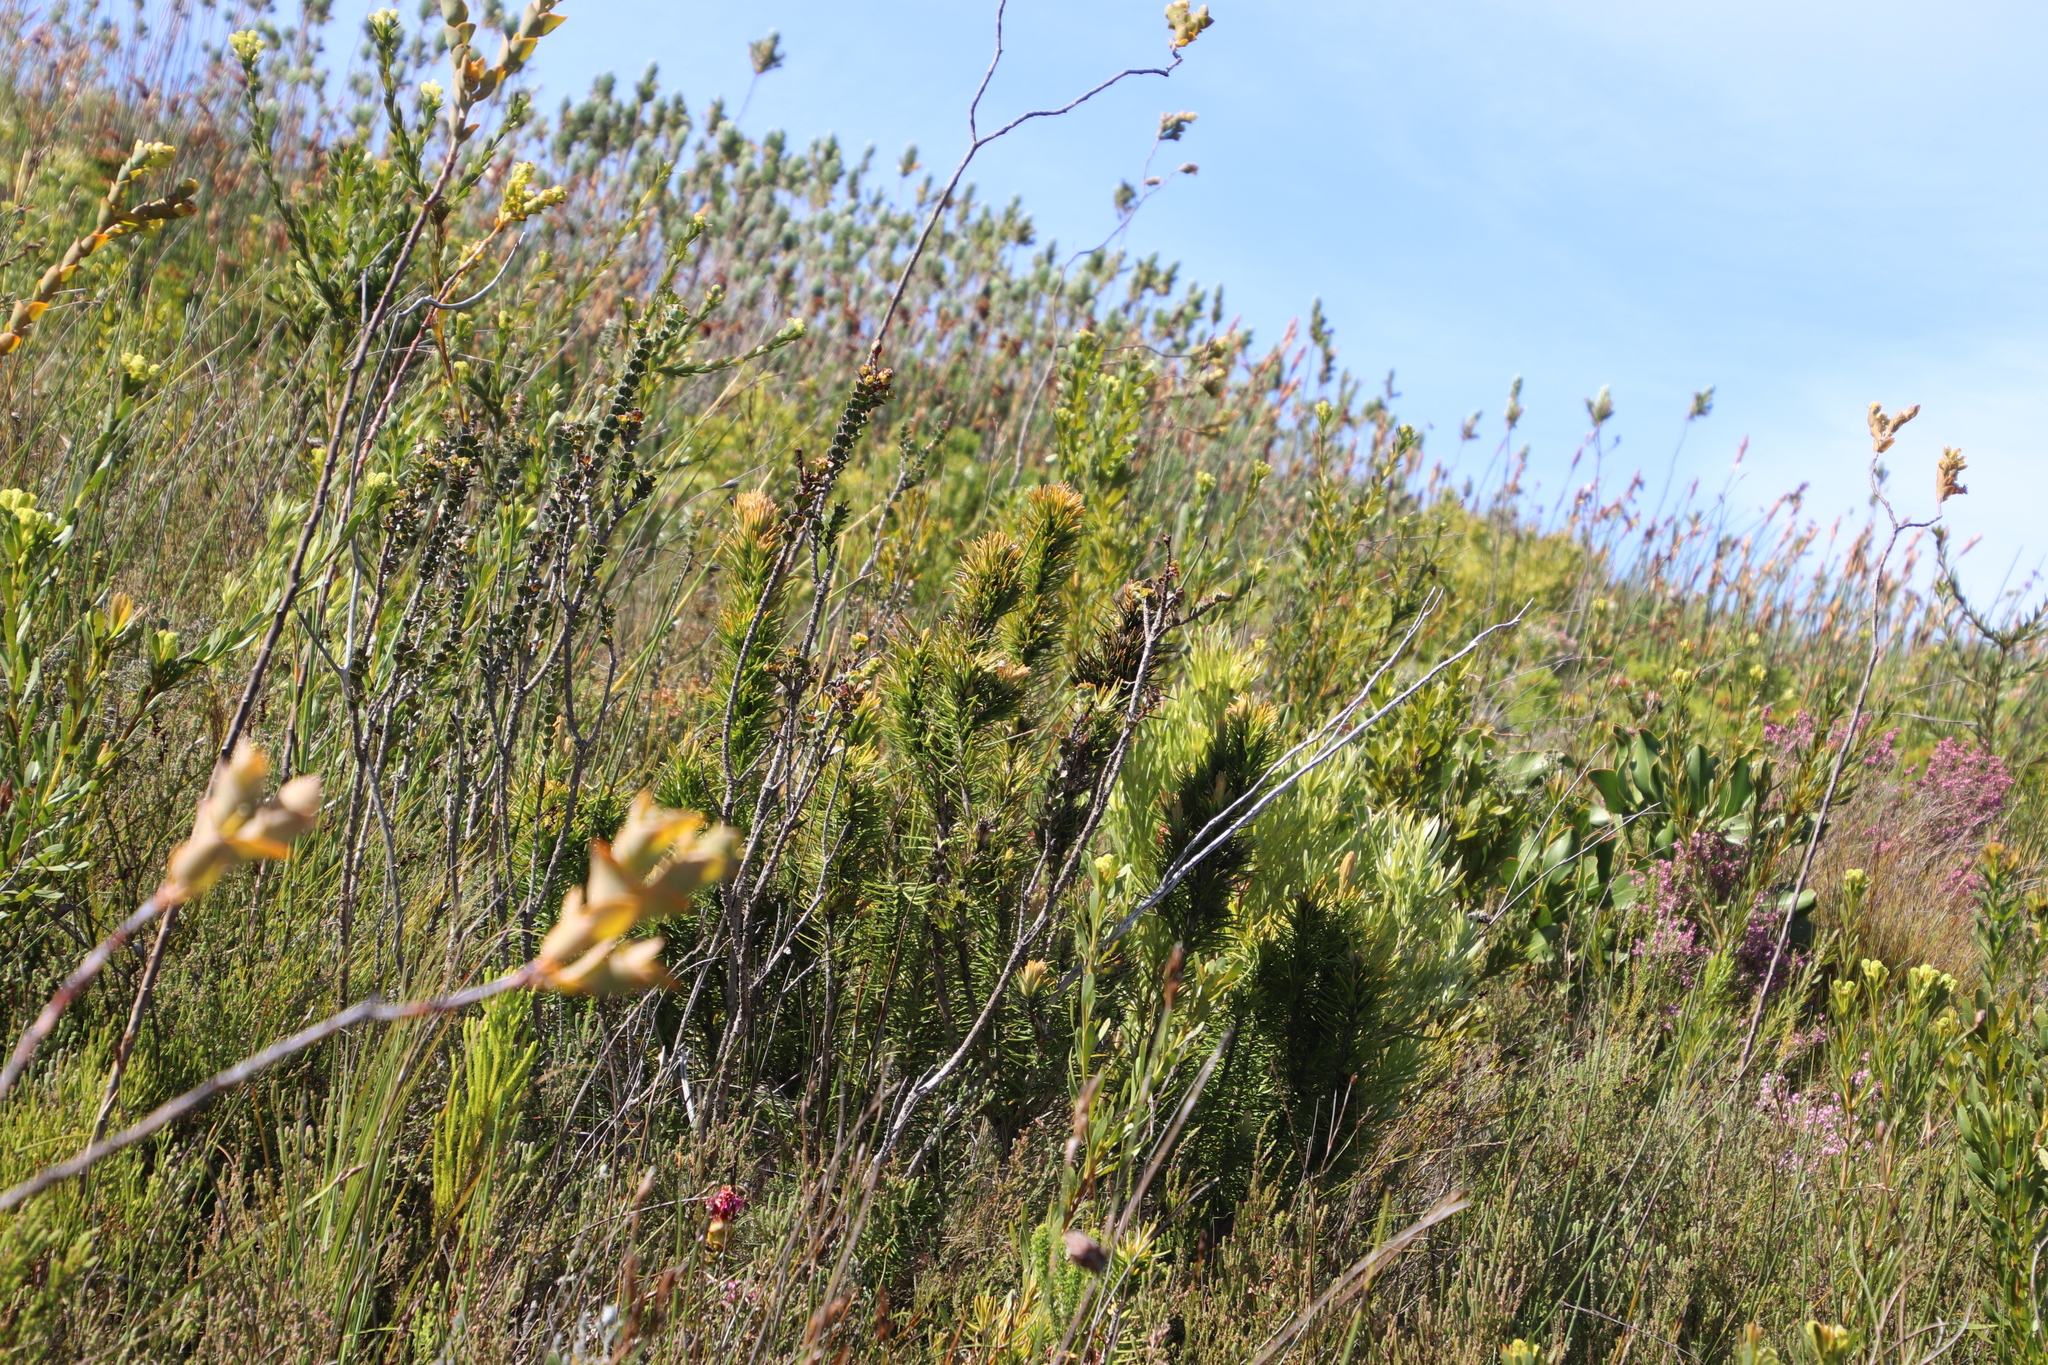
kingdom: Plantae
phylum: Tracheophyta
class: Magnoliopsida
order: Lamiales
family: Stilbaceae
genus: Retzia
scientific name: Retzia capensis
